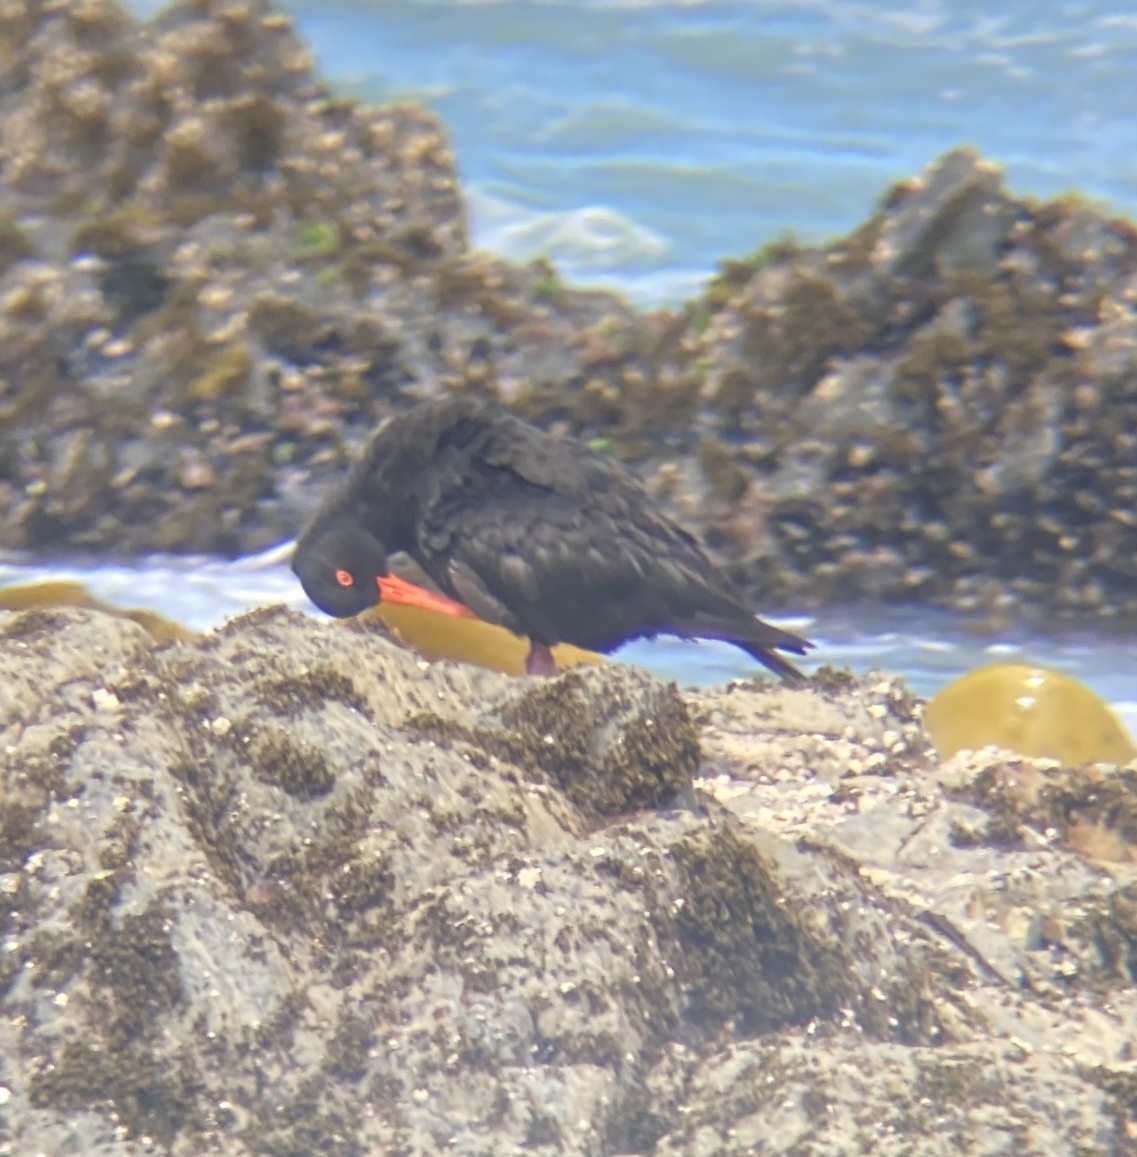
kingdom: Animalia
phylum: Chordata
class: Aves
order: Charadriiformes
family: Haematopodidae
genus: Haematopus
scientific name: Haematopus unicolor
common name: Variable oystercatcher
